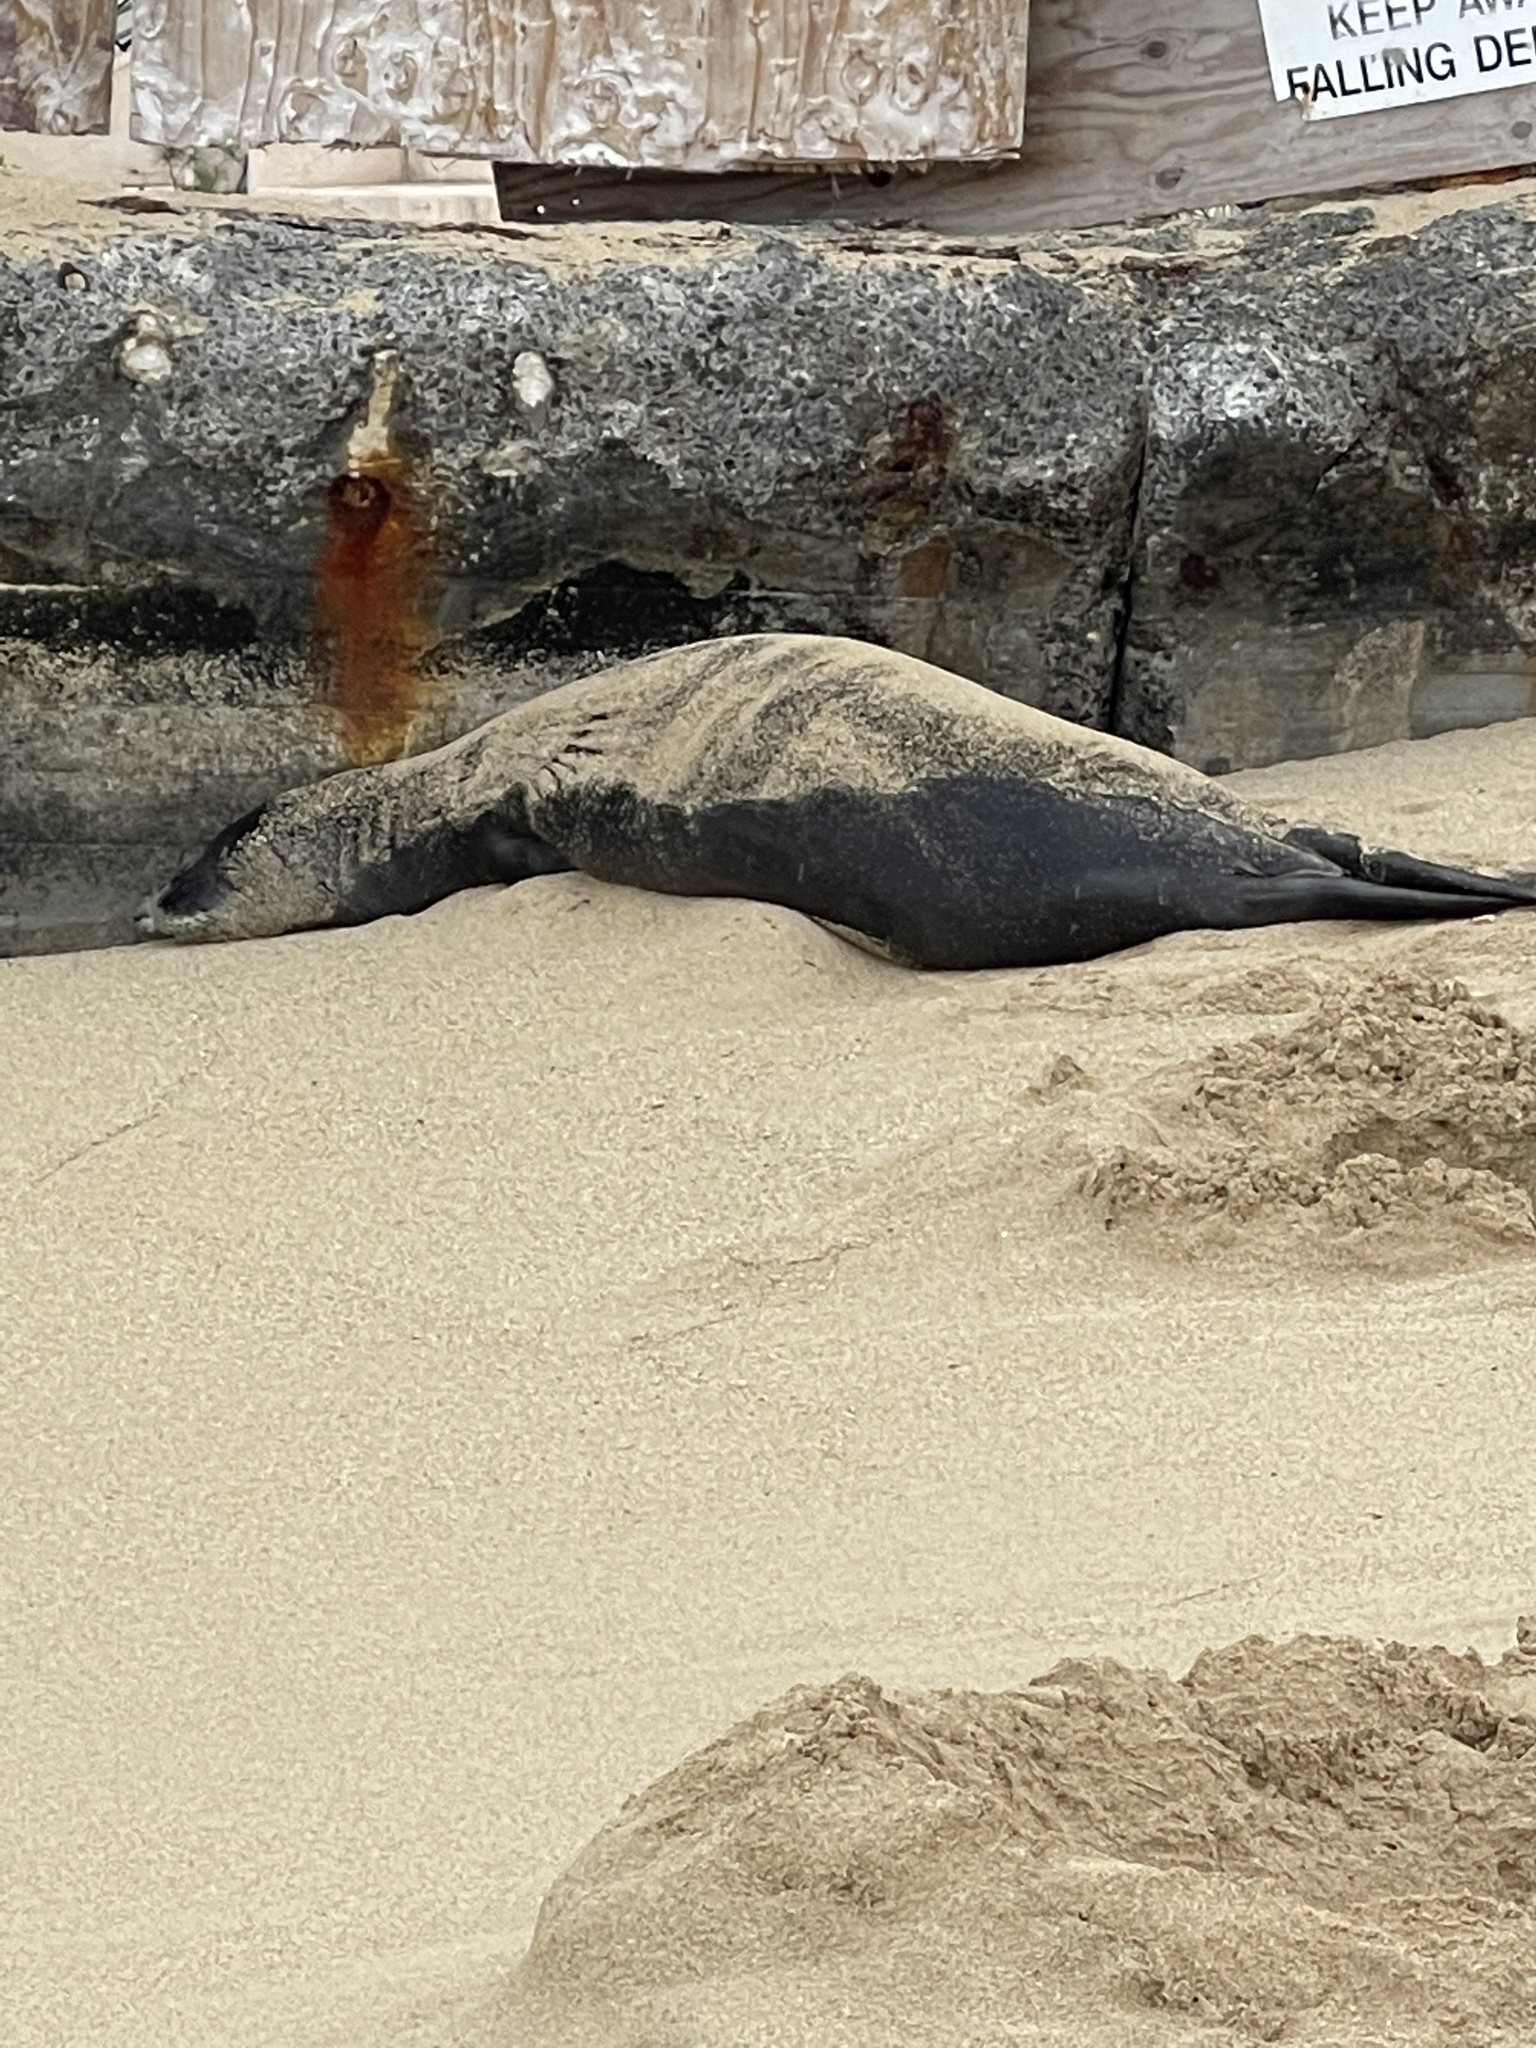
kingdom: Animalia
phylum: Chordata
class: Mammalia
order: Carnivora
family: Phocidae
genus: Neomonachus
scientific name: Neomonachus schauinslandi
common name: Hawaiian monk seal
